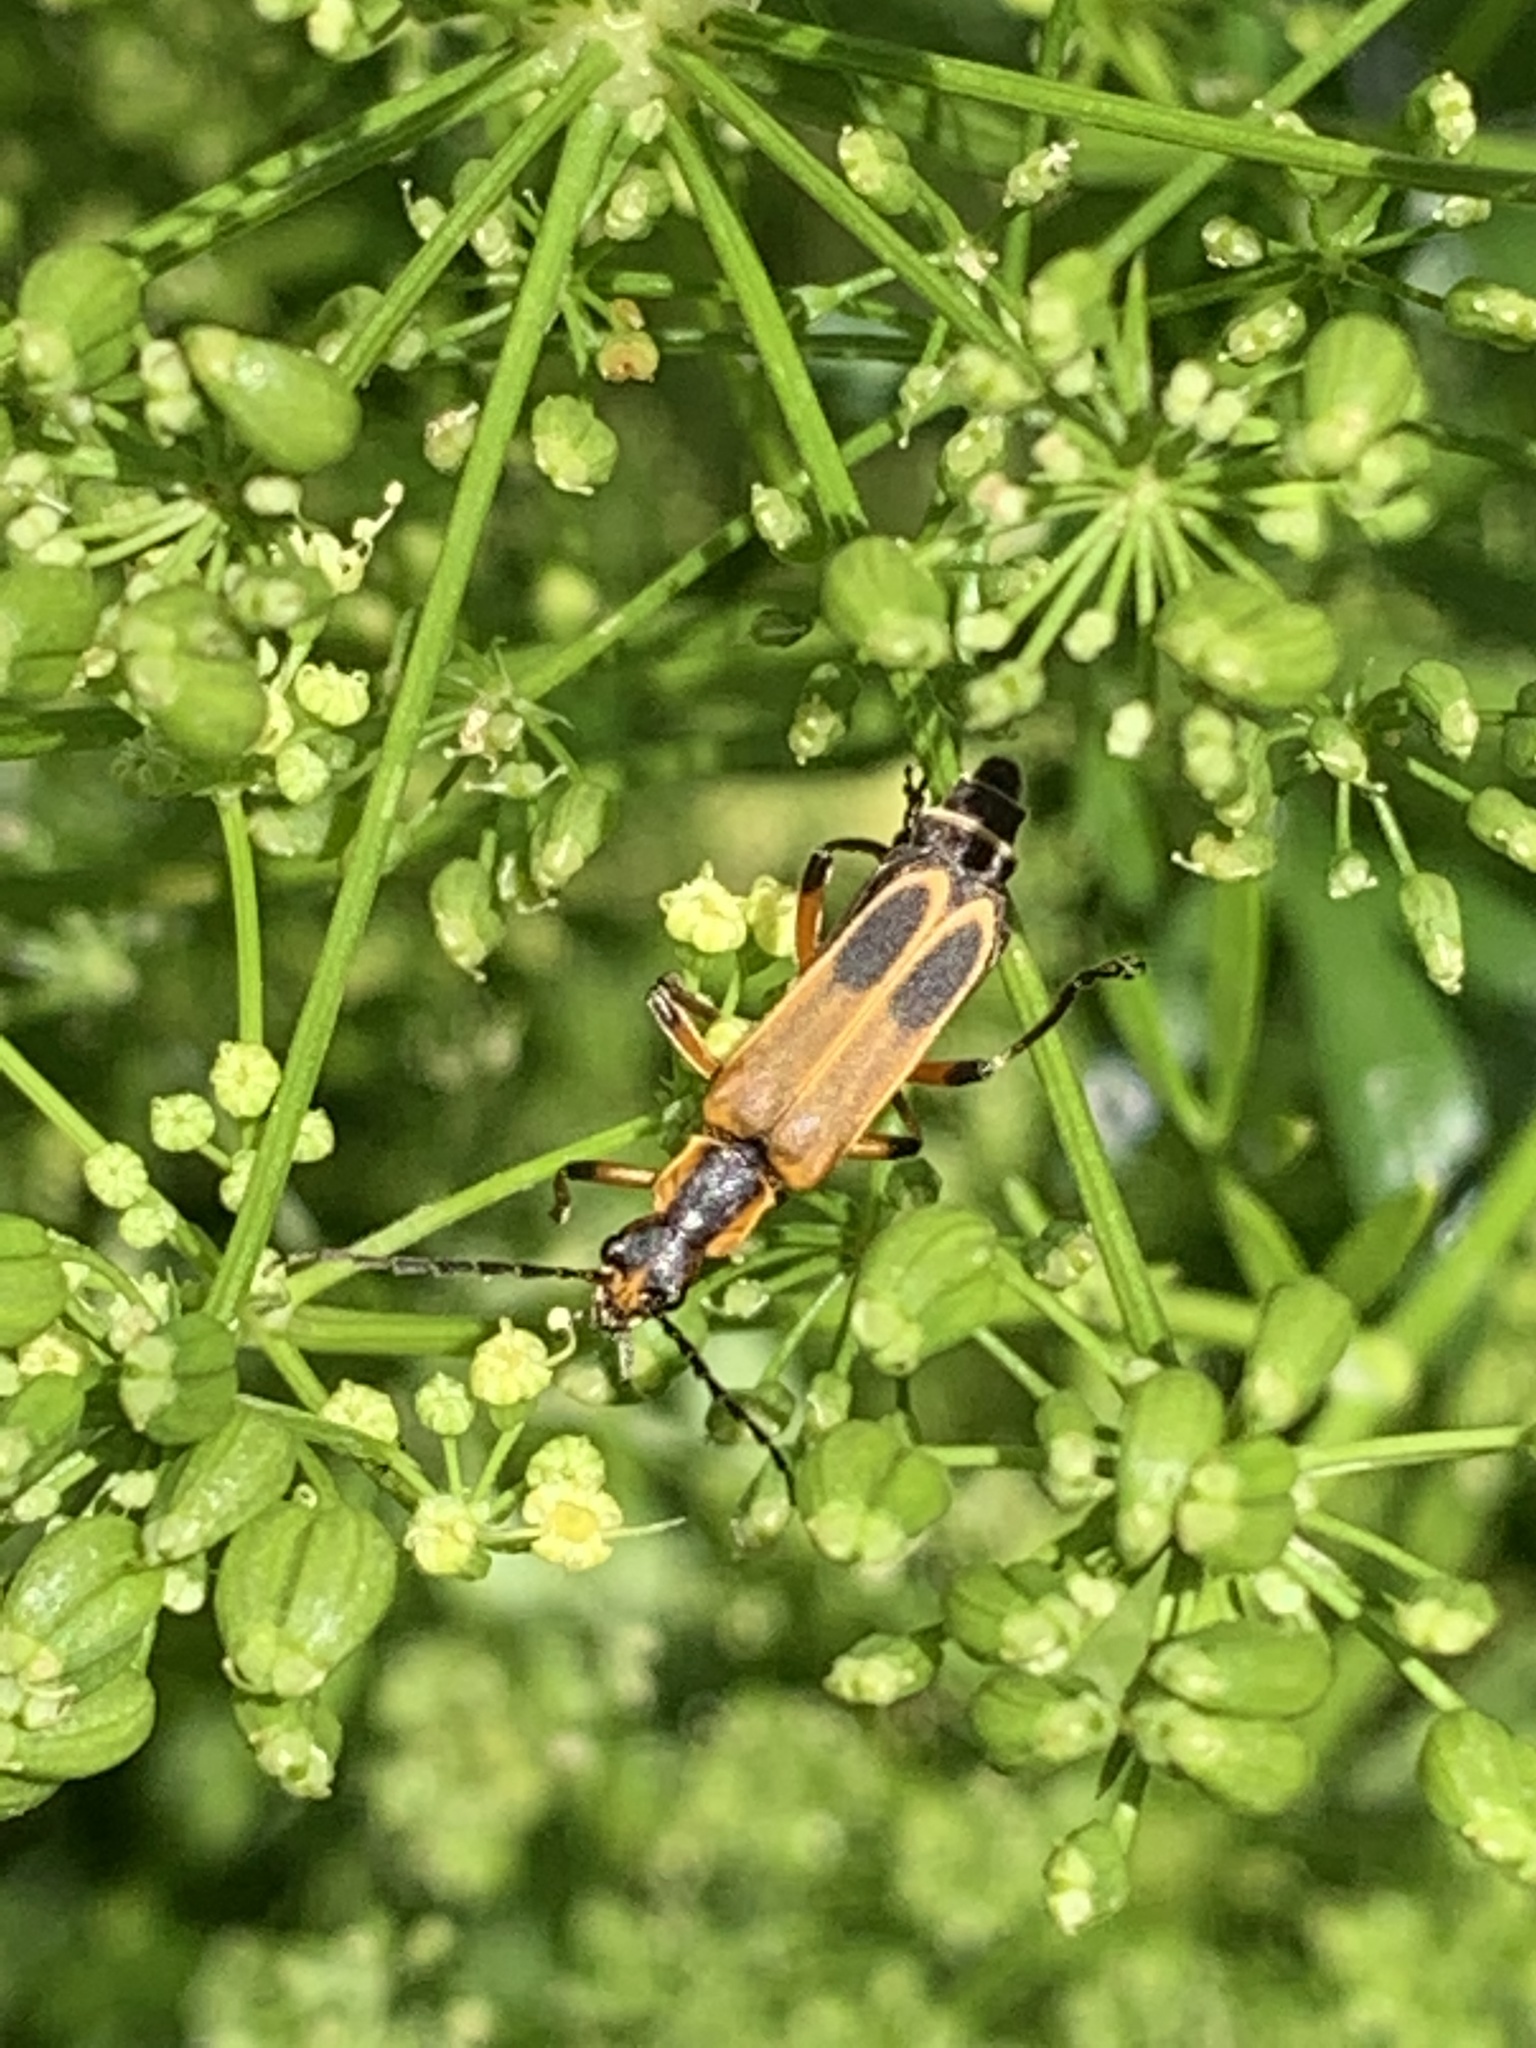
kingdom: Animalia
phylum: Arthropoda
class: Insecta
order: Coleoptera
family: Cantharidae
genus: Chauliognathus
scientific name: Chauliognathus marginatus
